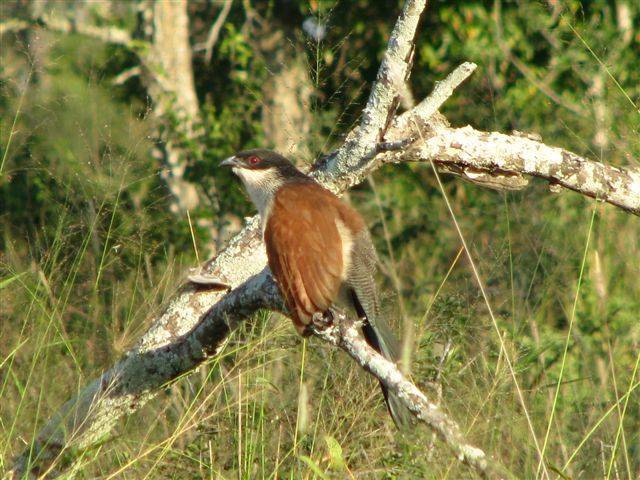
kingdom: Animalia
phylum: Chordata
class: Aves
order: Cuculiformes
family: Cuculidae
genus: Centropus
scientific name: Centropus superciliosus
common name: White-browed coucal
